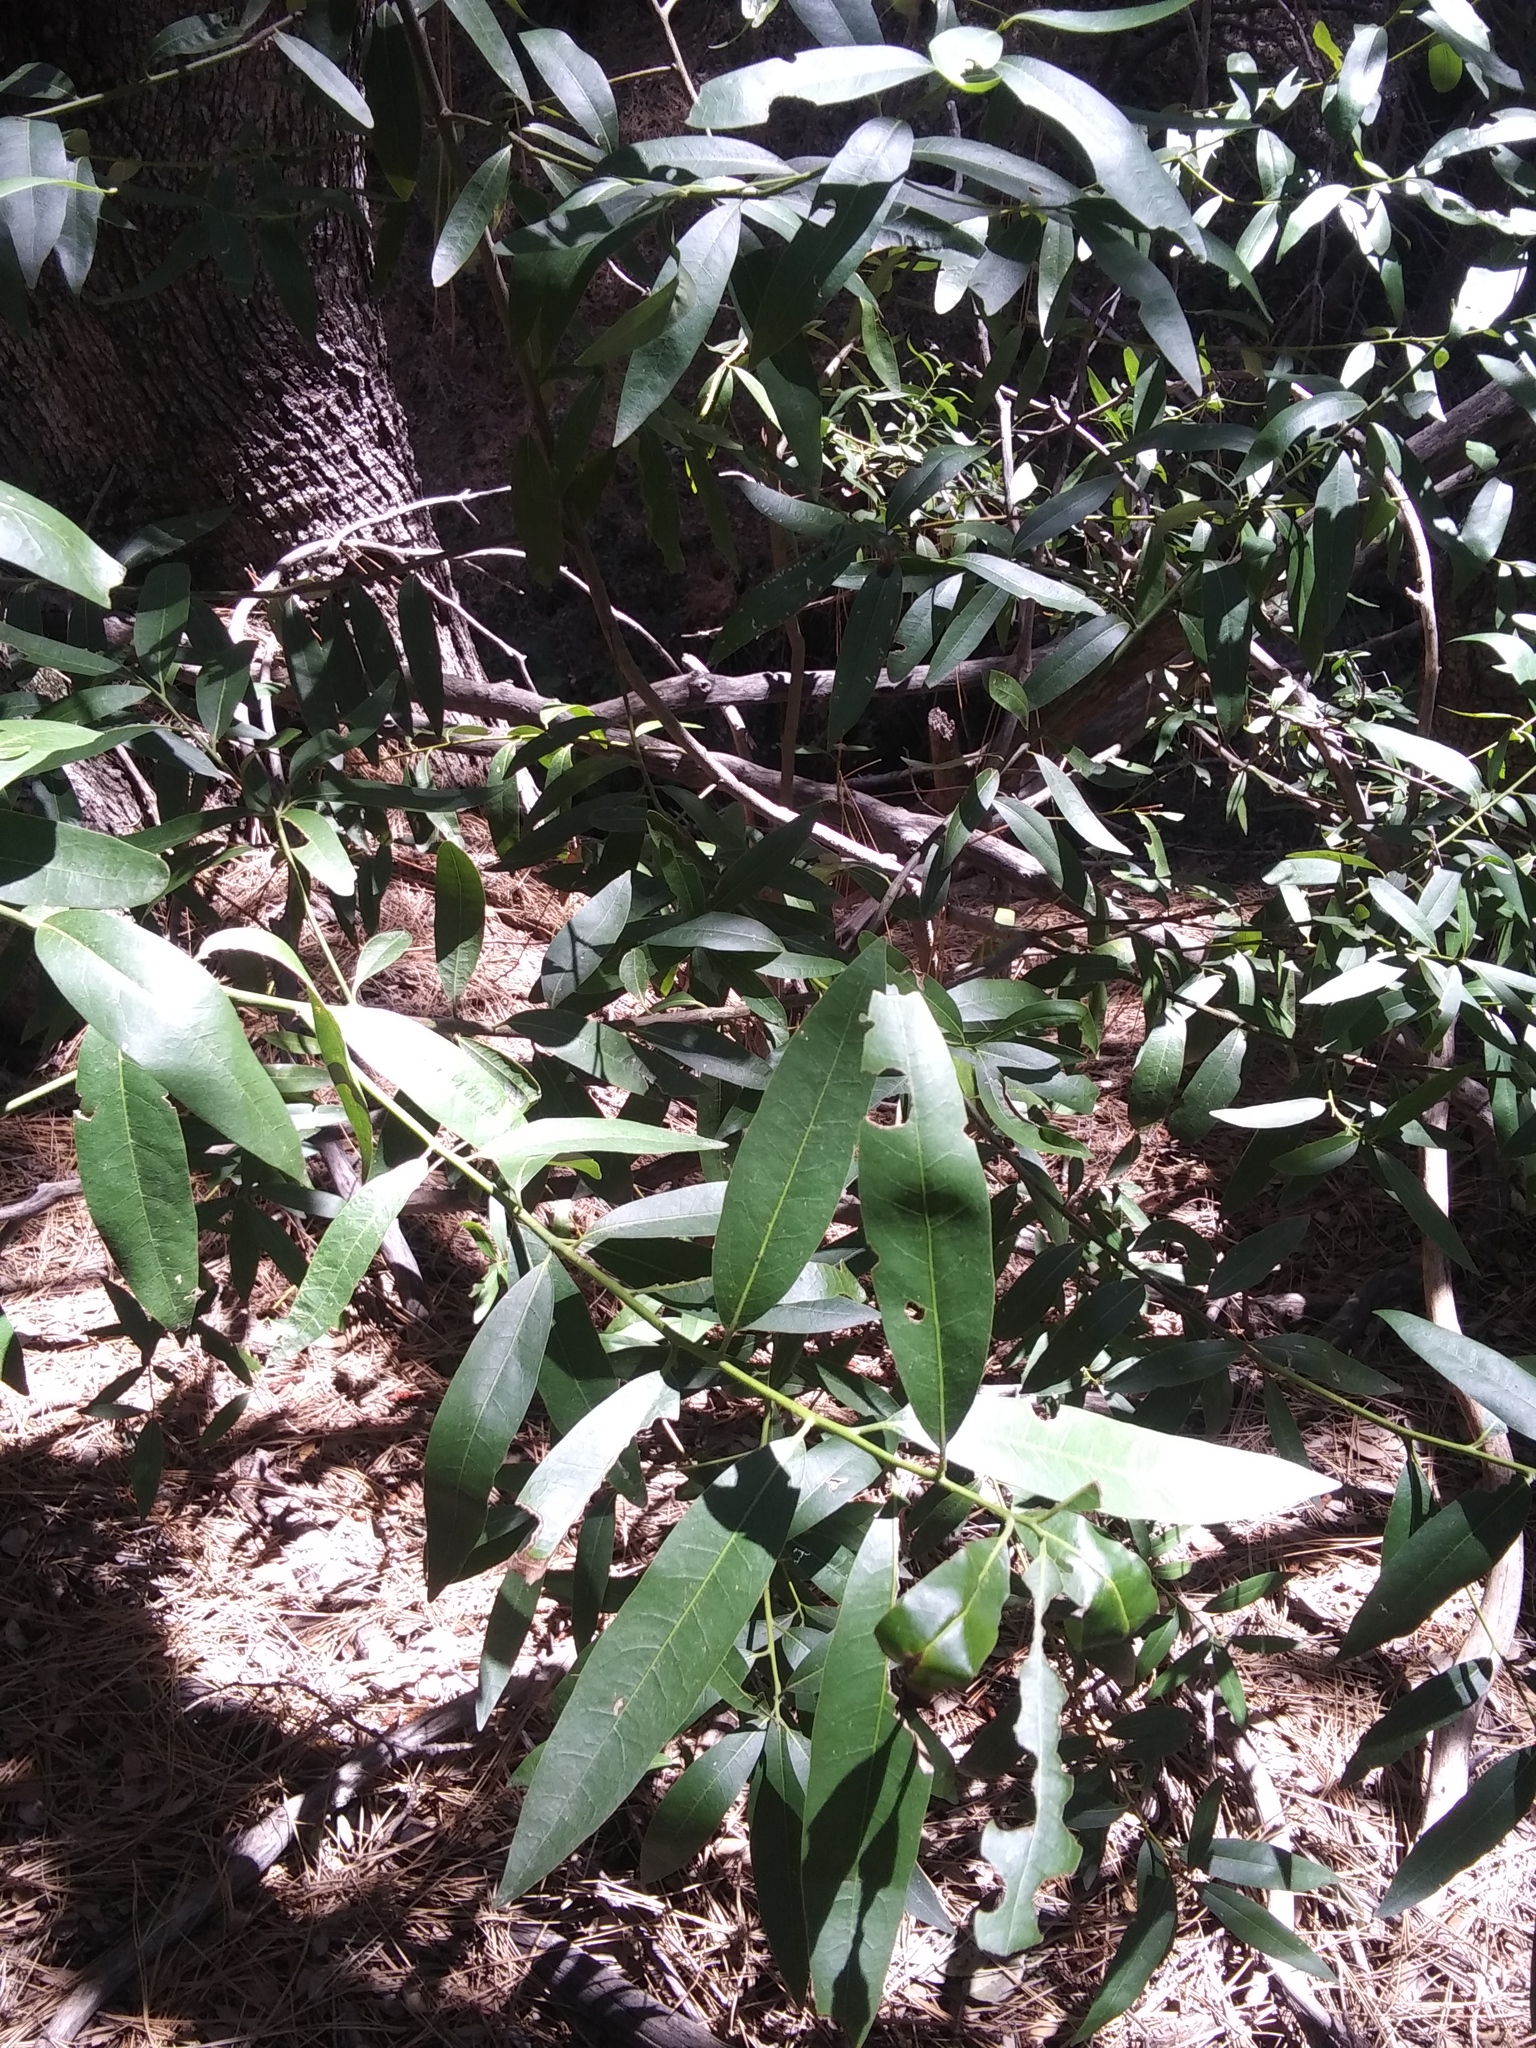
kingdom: Plantae
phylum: Tracheophyta
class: Magnoliopsida
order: Laurales
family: Lauraceae
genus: Umbellularia
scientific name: Umbellularia californica
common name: California bay
